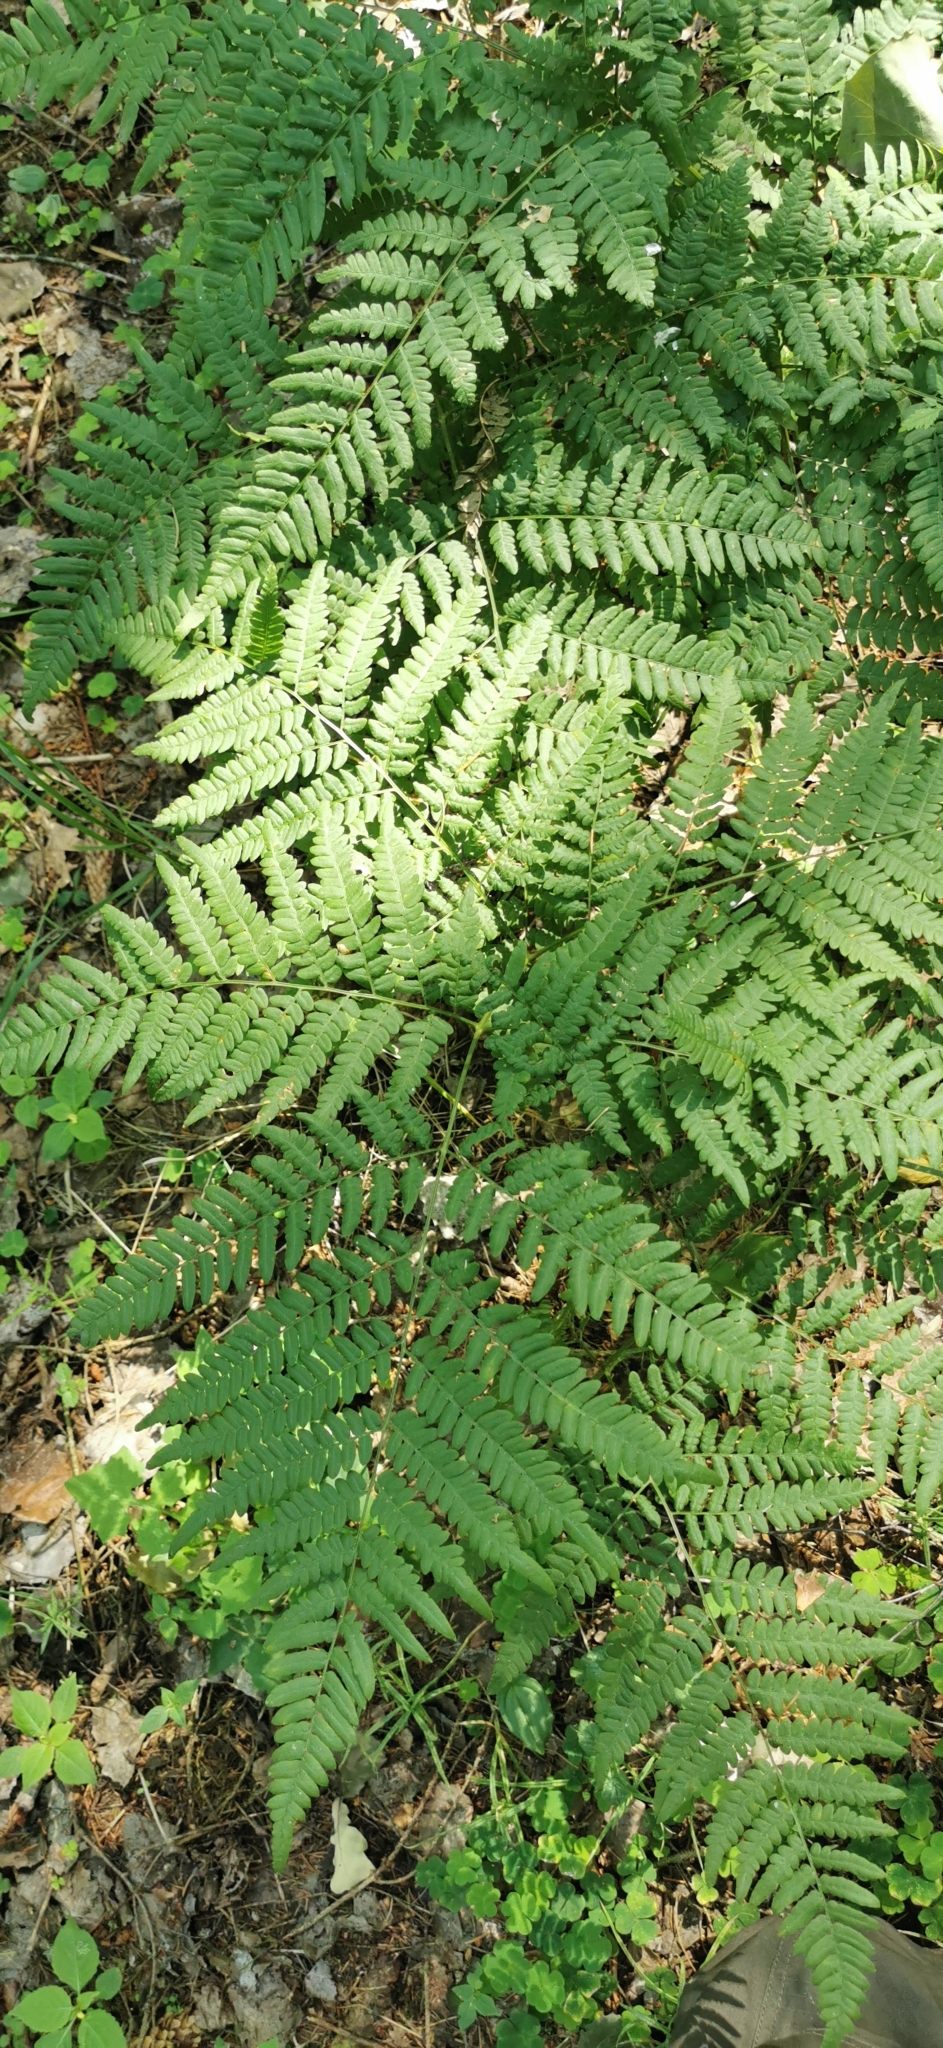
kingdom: Plantae
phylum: Tracheophyta
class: Polypodiopsida
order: Polypodiales
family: Dennstaedtiaceae
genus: Pteridium
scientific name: Pteridium aquilinum
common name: Bracken
